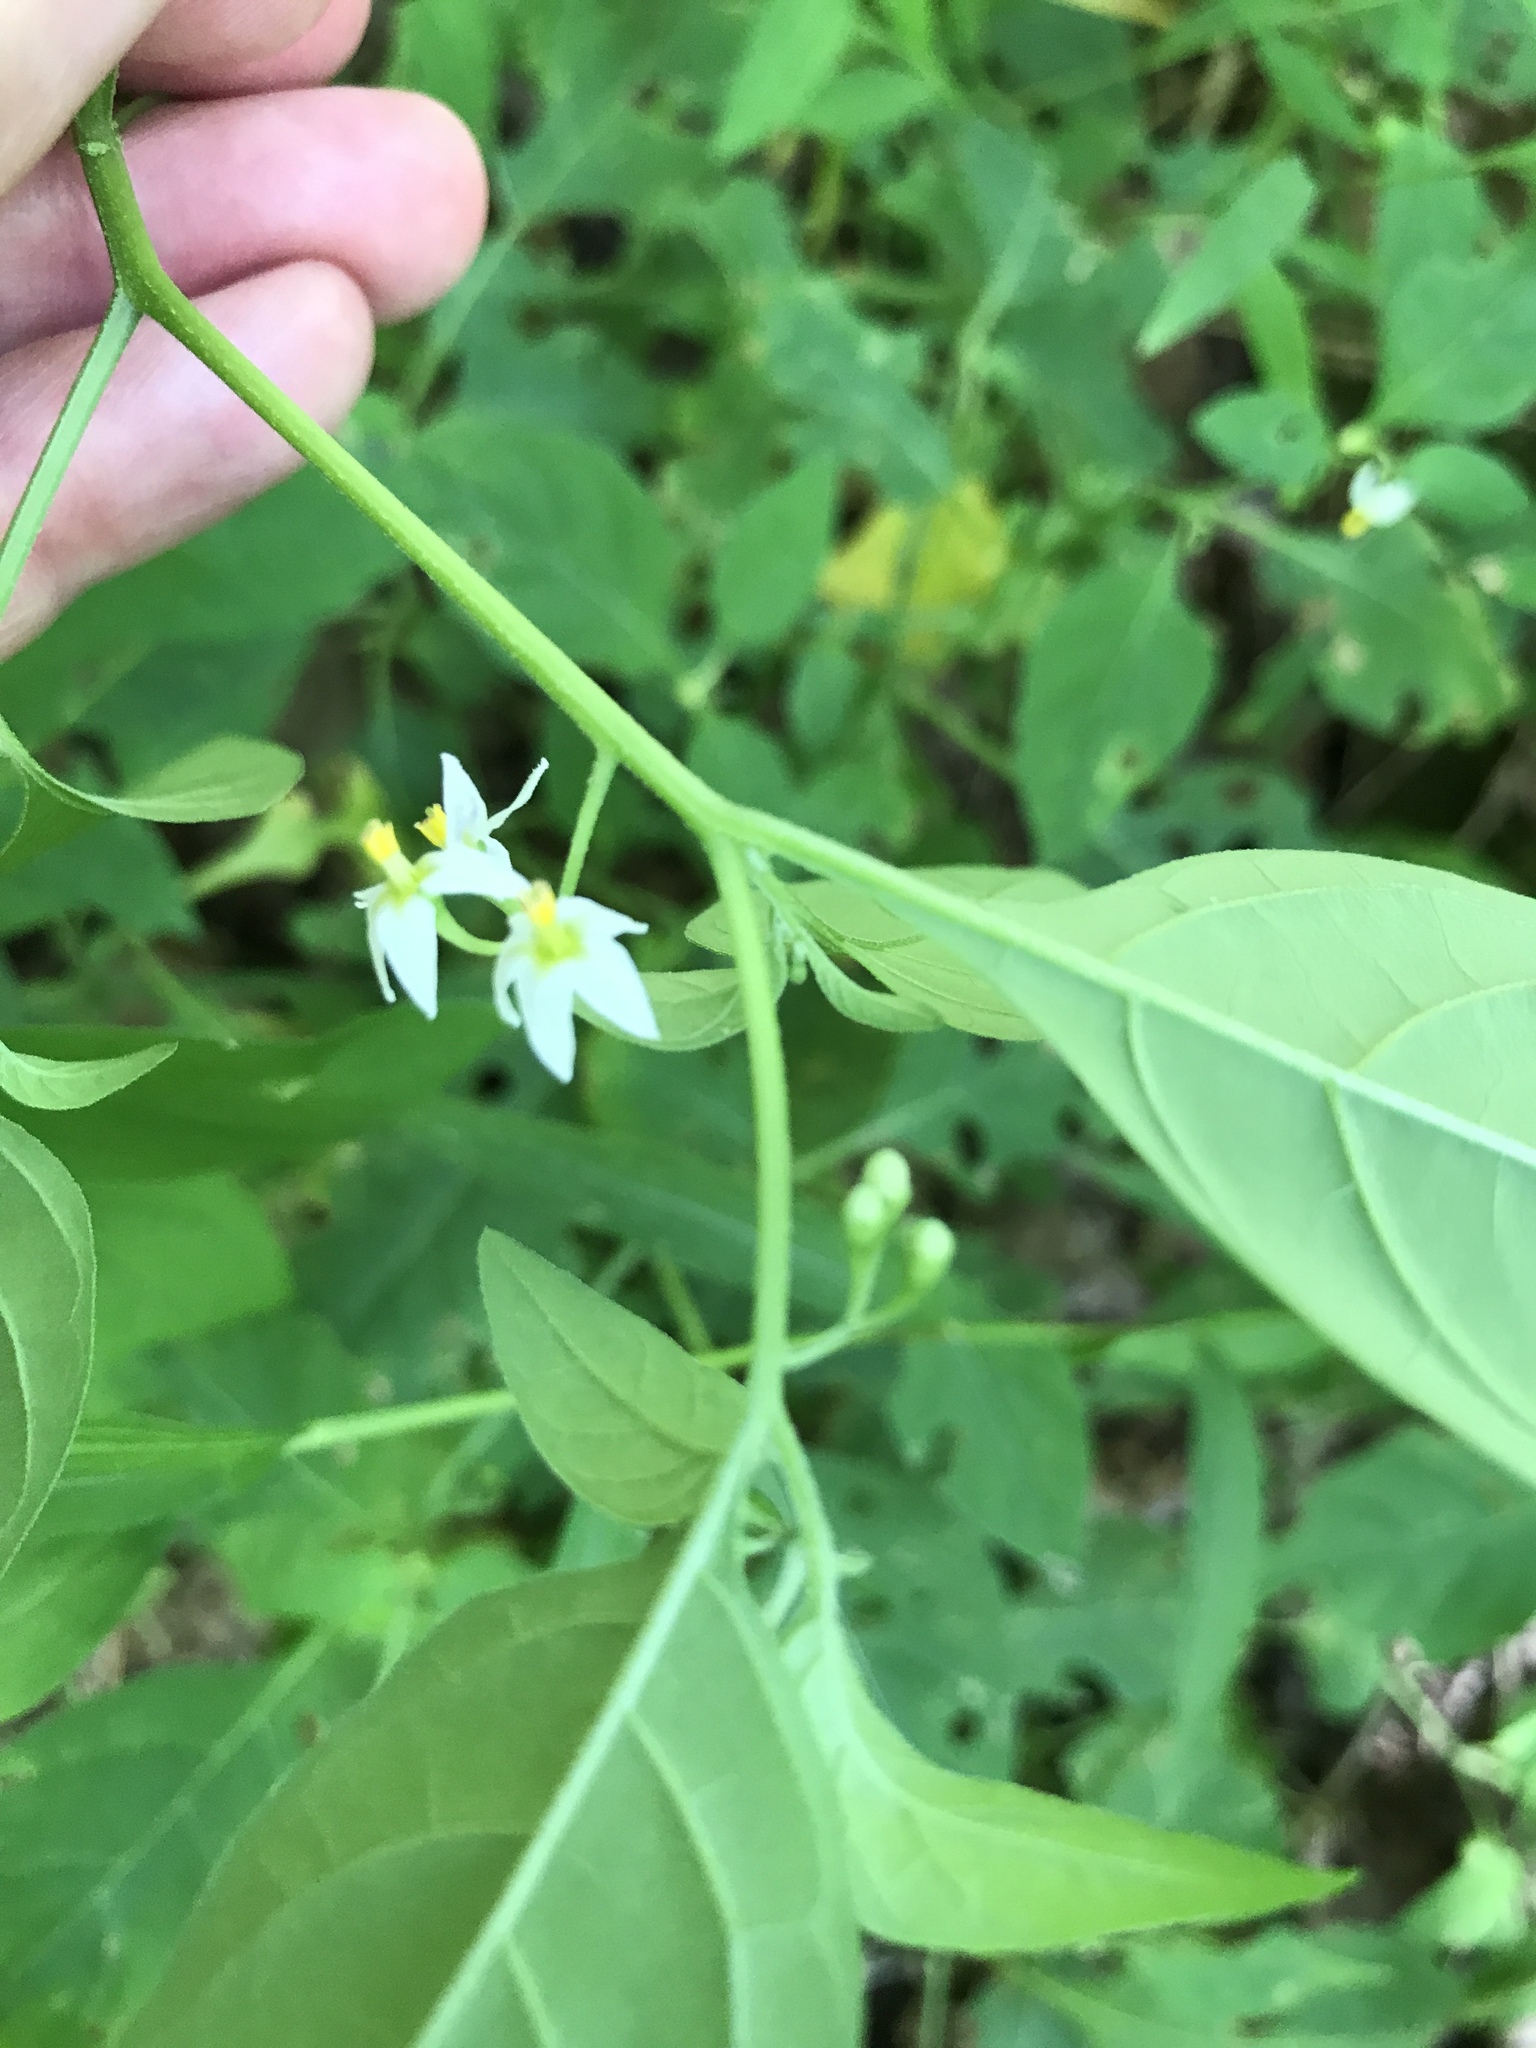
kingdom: Plantae
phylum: Tracheophyta
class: Magnoliopsida
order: Solanales
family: Solanaceae
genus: Solanum
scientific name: Solanum emulans
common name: Eastern black nightshade
